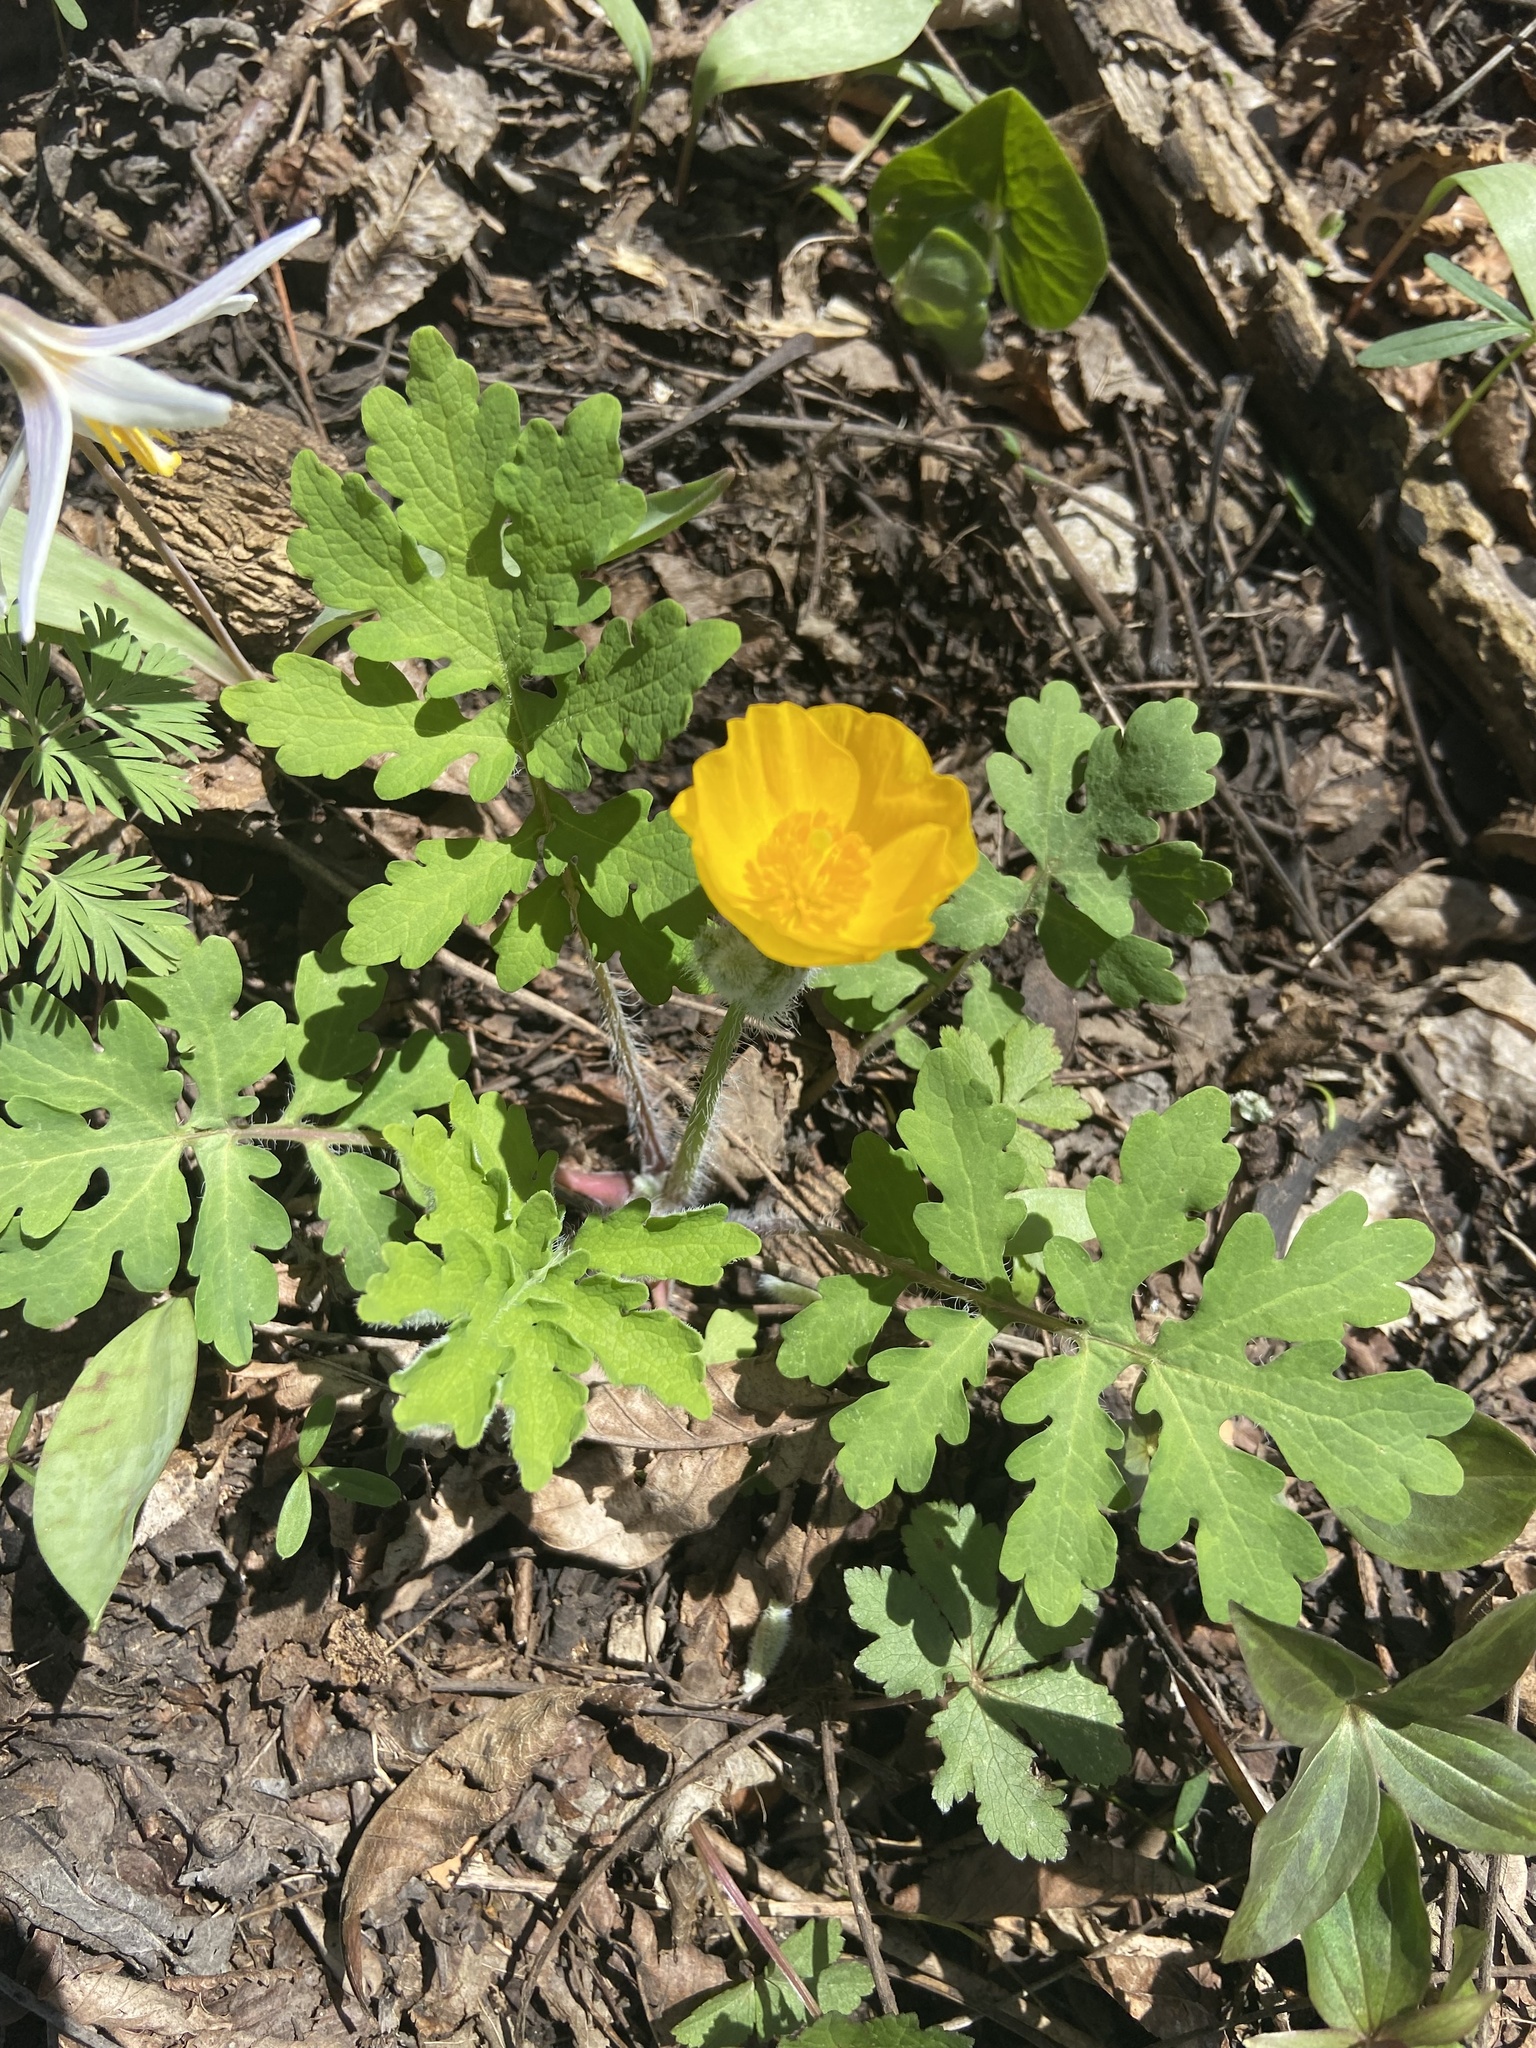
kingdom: Plantae
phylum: Tracheophyta
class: Magnoliopsida
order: Ranunculales
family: Papaveraceae
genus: Stylophorum
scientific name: Stylophorum diphyllum
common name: Celandine poppy
